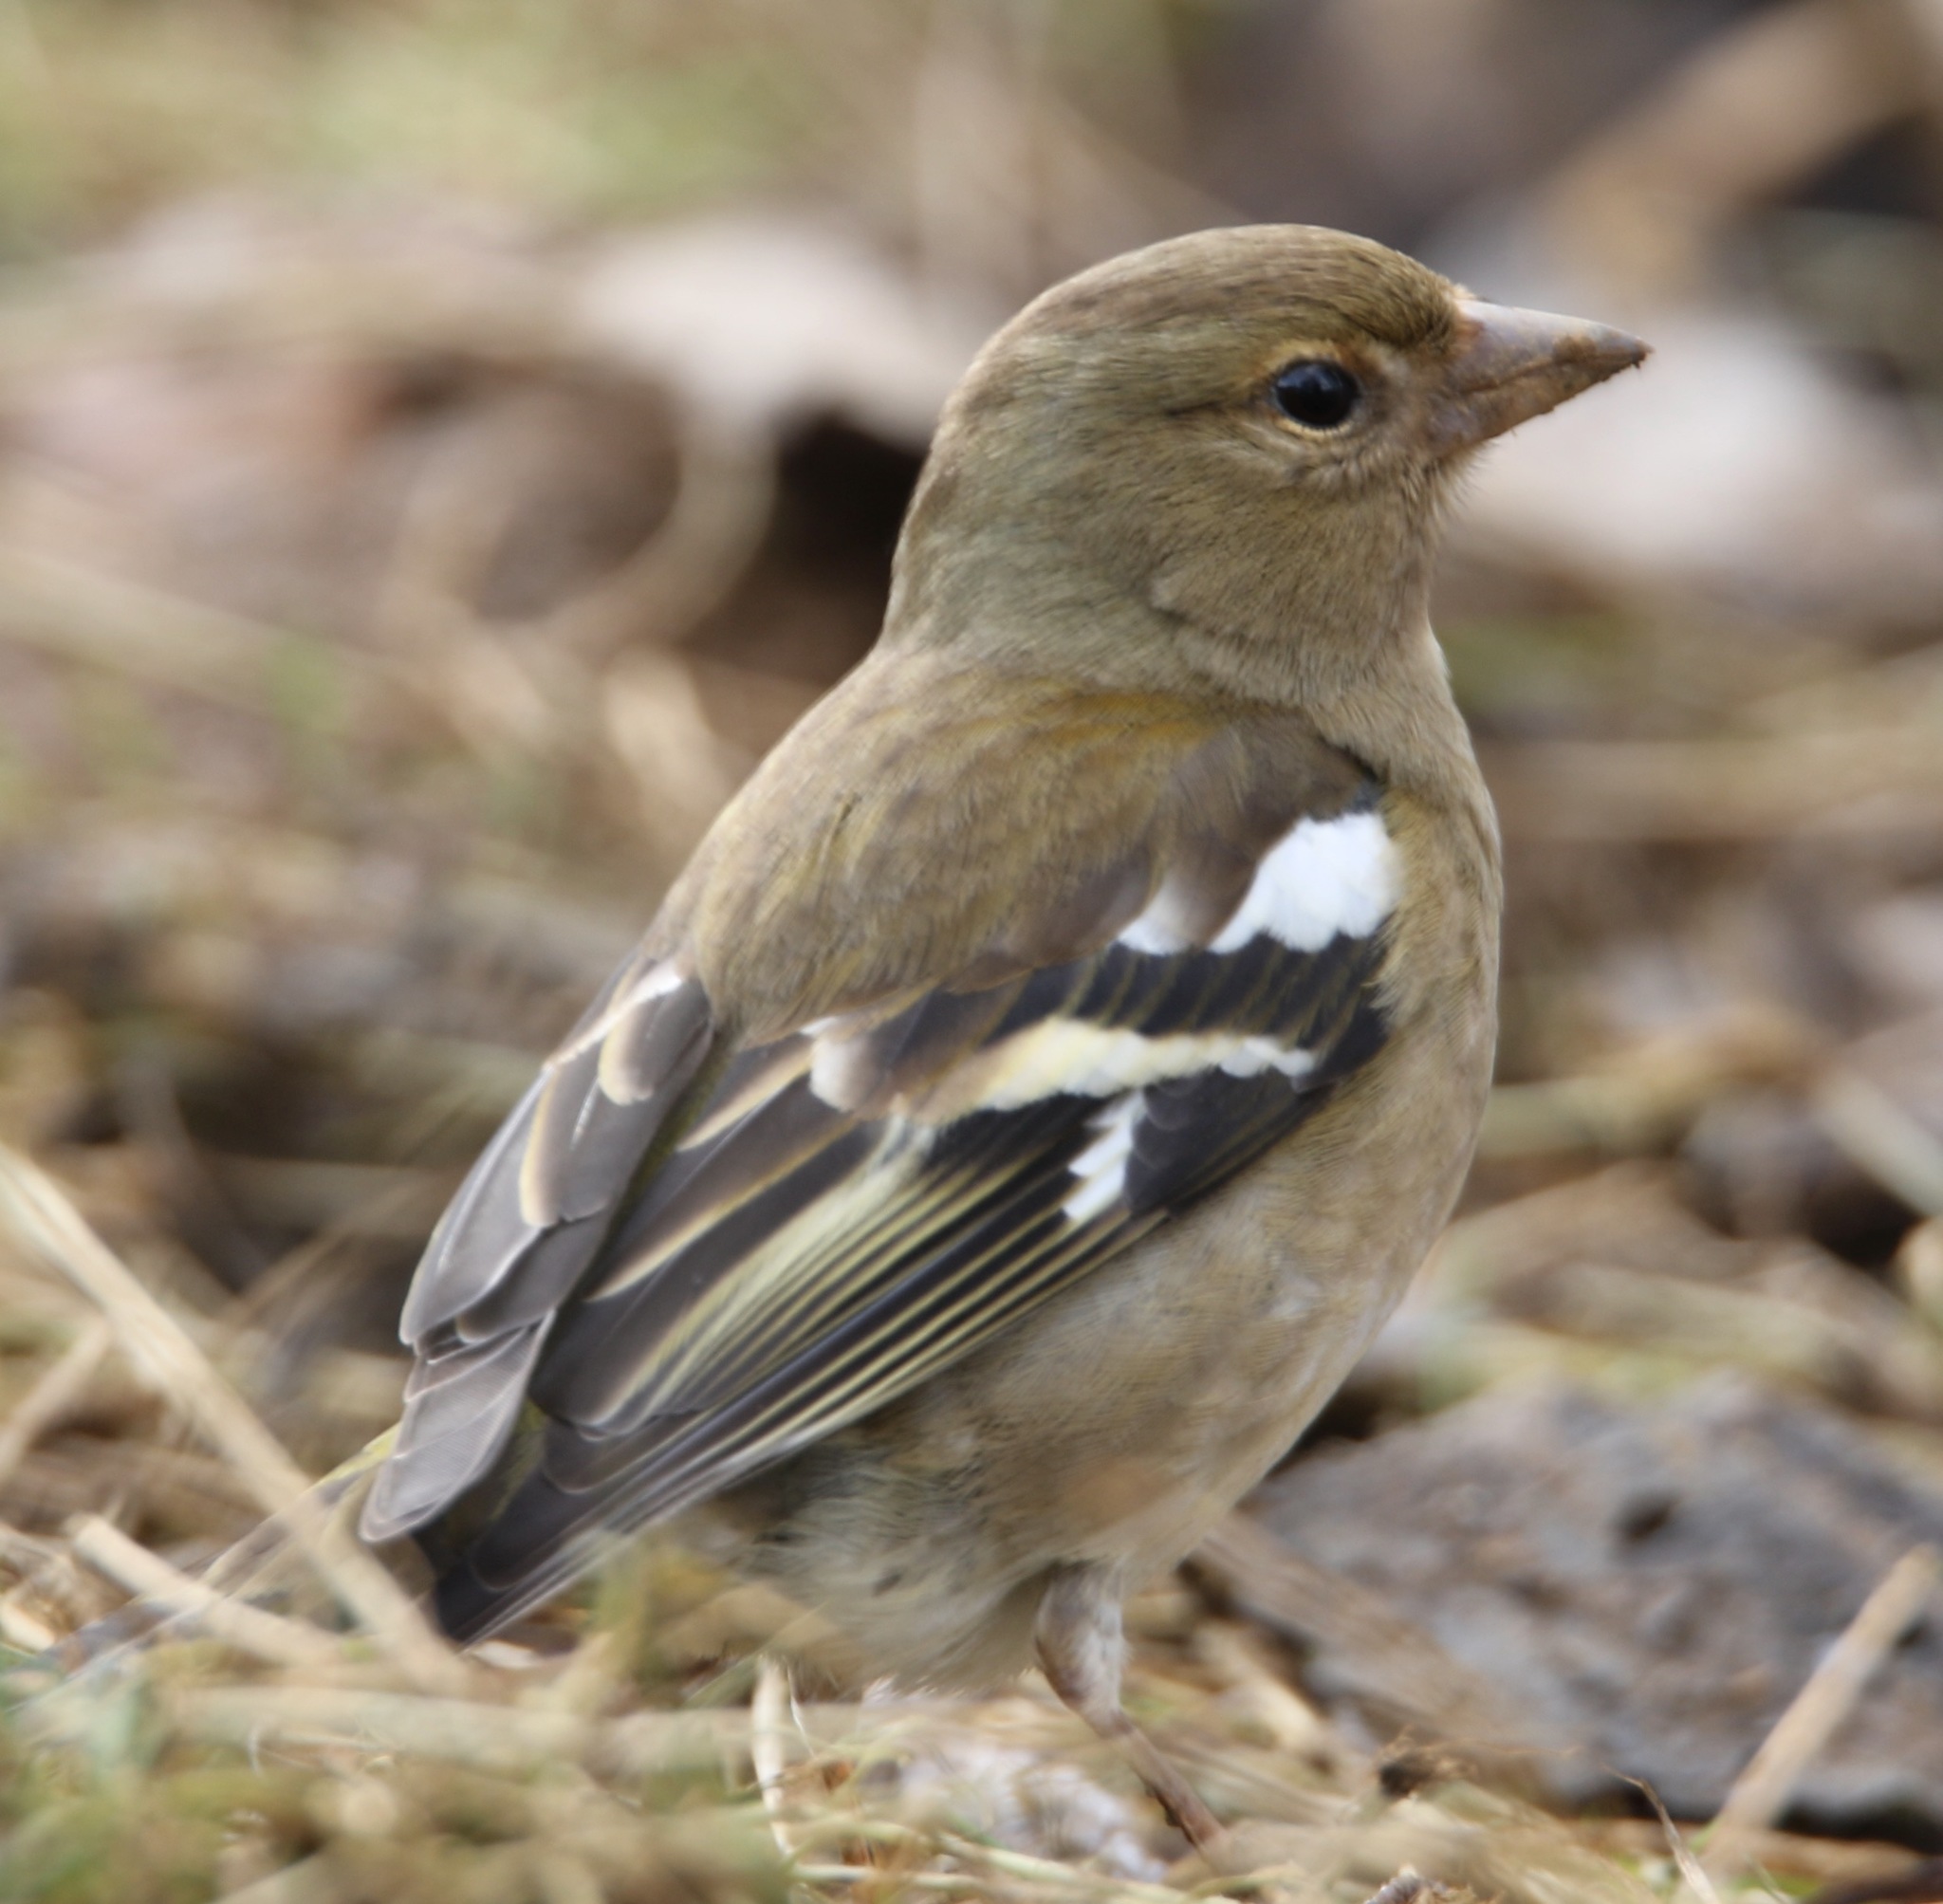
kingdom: Animalia
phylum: Chordata
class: Aves
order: Passeriformes
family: Fringillidae
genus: Fringilla
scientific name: Fringilla coelebs
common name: Common chaffinch
